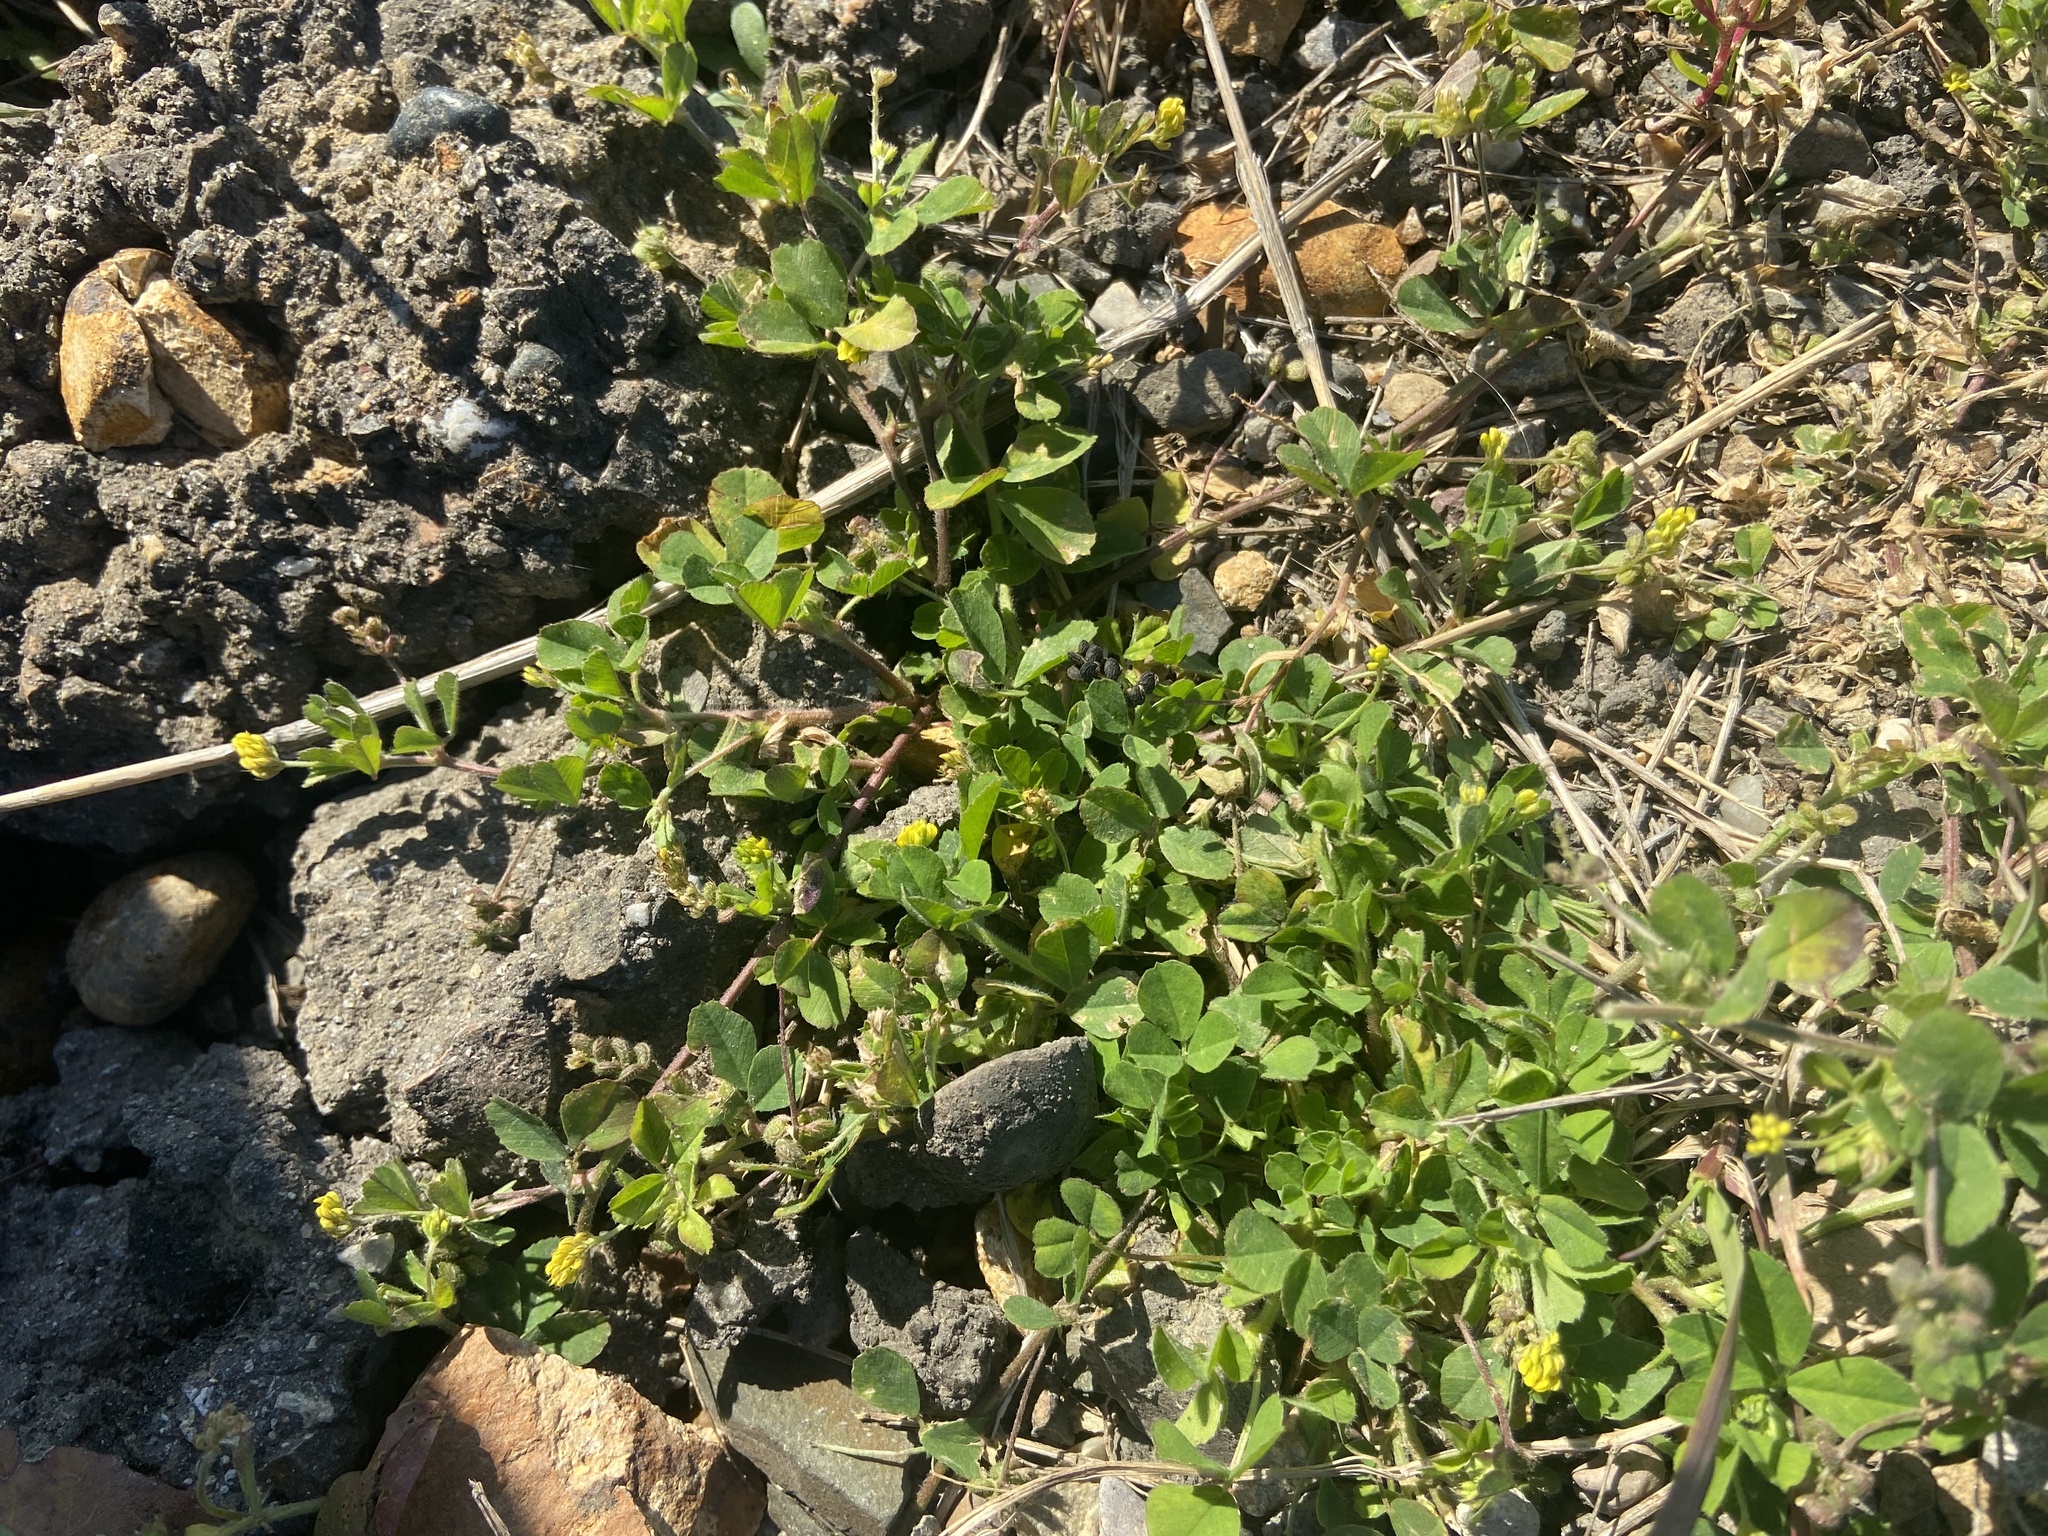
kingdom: Plantae
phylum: Tracheophyta
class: Magnoliopsida
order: Fabales
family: Fabaceae
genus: Medicago
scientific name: Medicago lupulina
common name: Black medick
